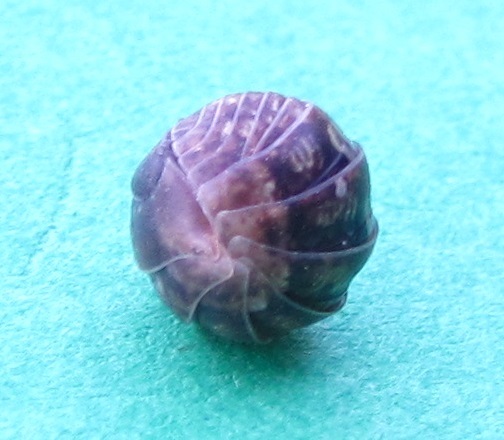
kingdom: Animalia
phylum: Arthropoda
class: Malacostraca
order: Isopoda
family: Armadillidiidae
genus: Armadillidium
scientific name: Armadillidium vulgare
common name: Common pill woodlouse
